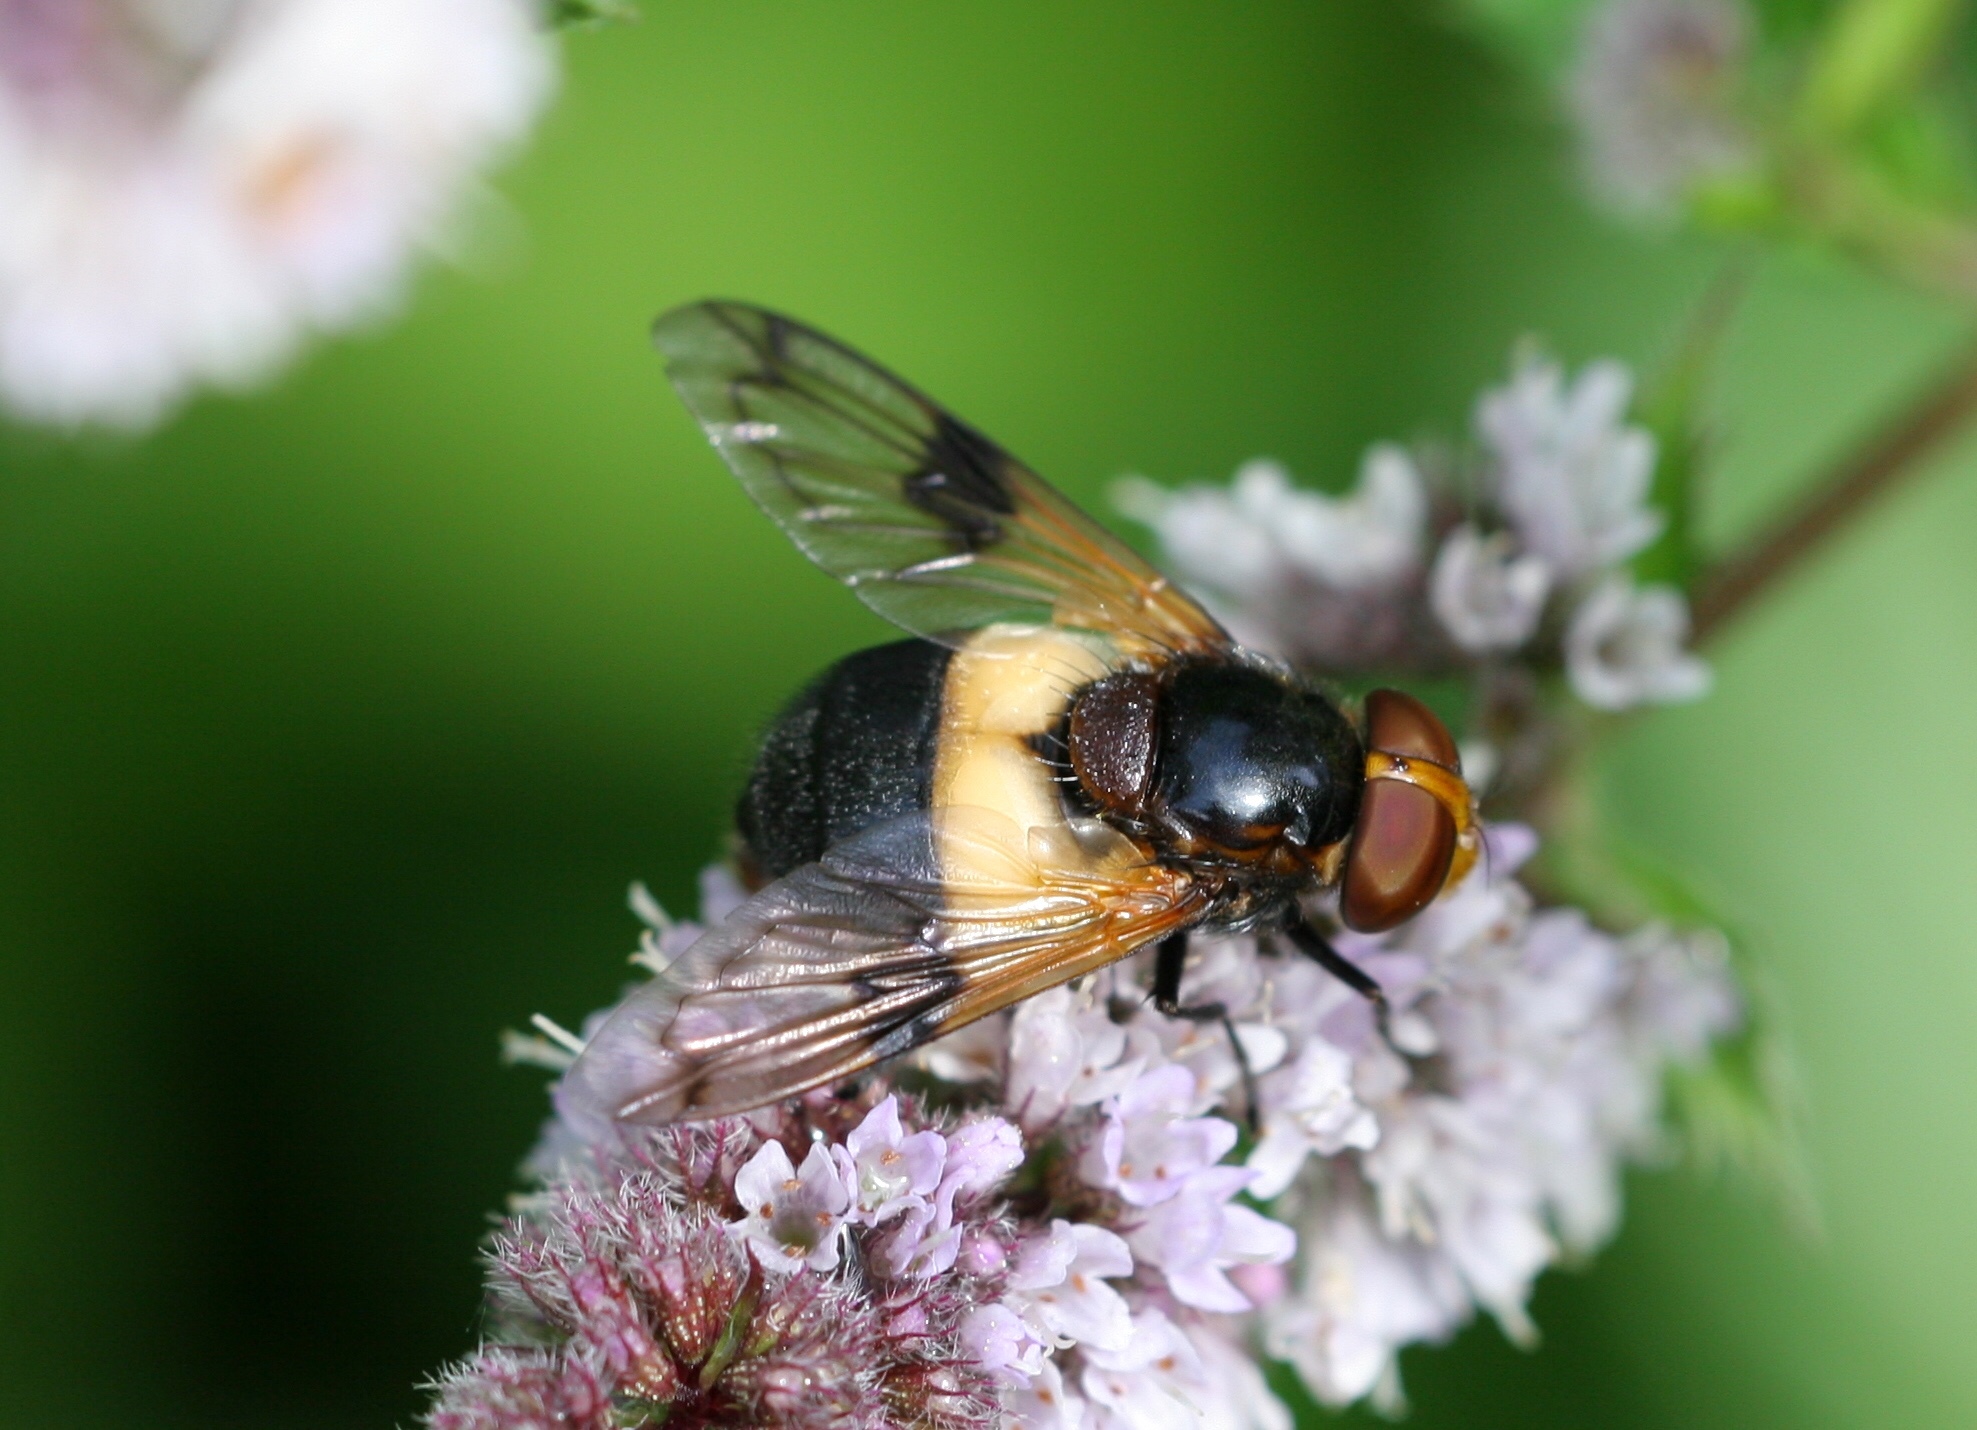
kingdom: Animalia
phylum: Arthropoda
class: Insecta
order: Diptera
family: Syrphidae
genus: Volucella
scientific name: Volucella pellucens
